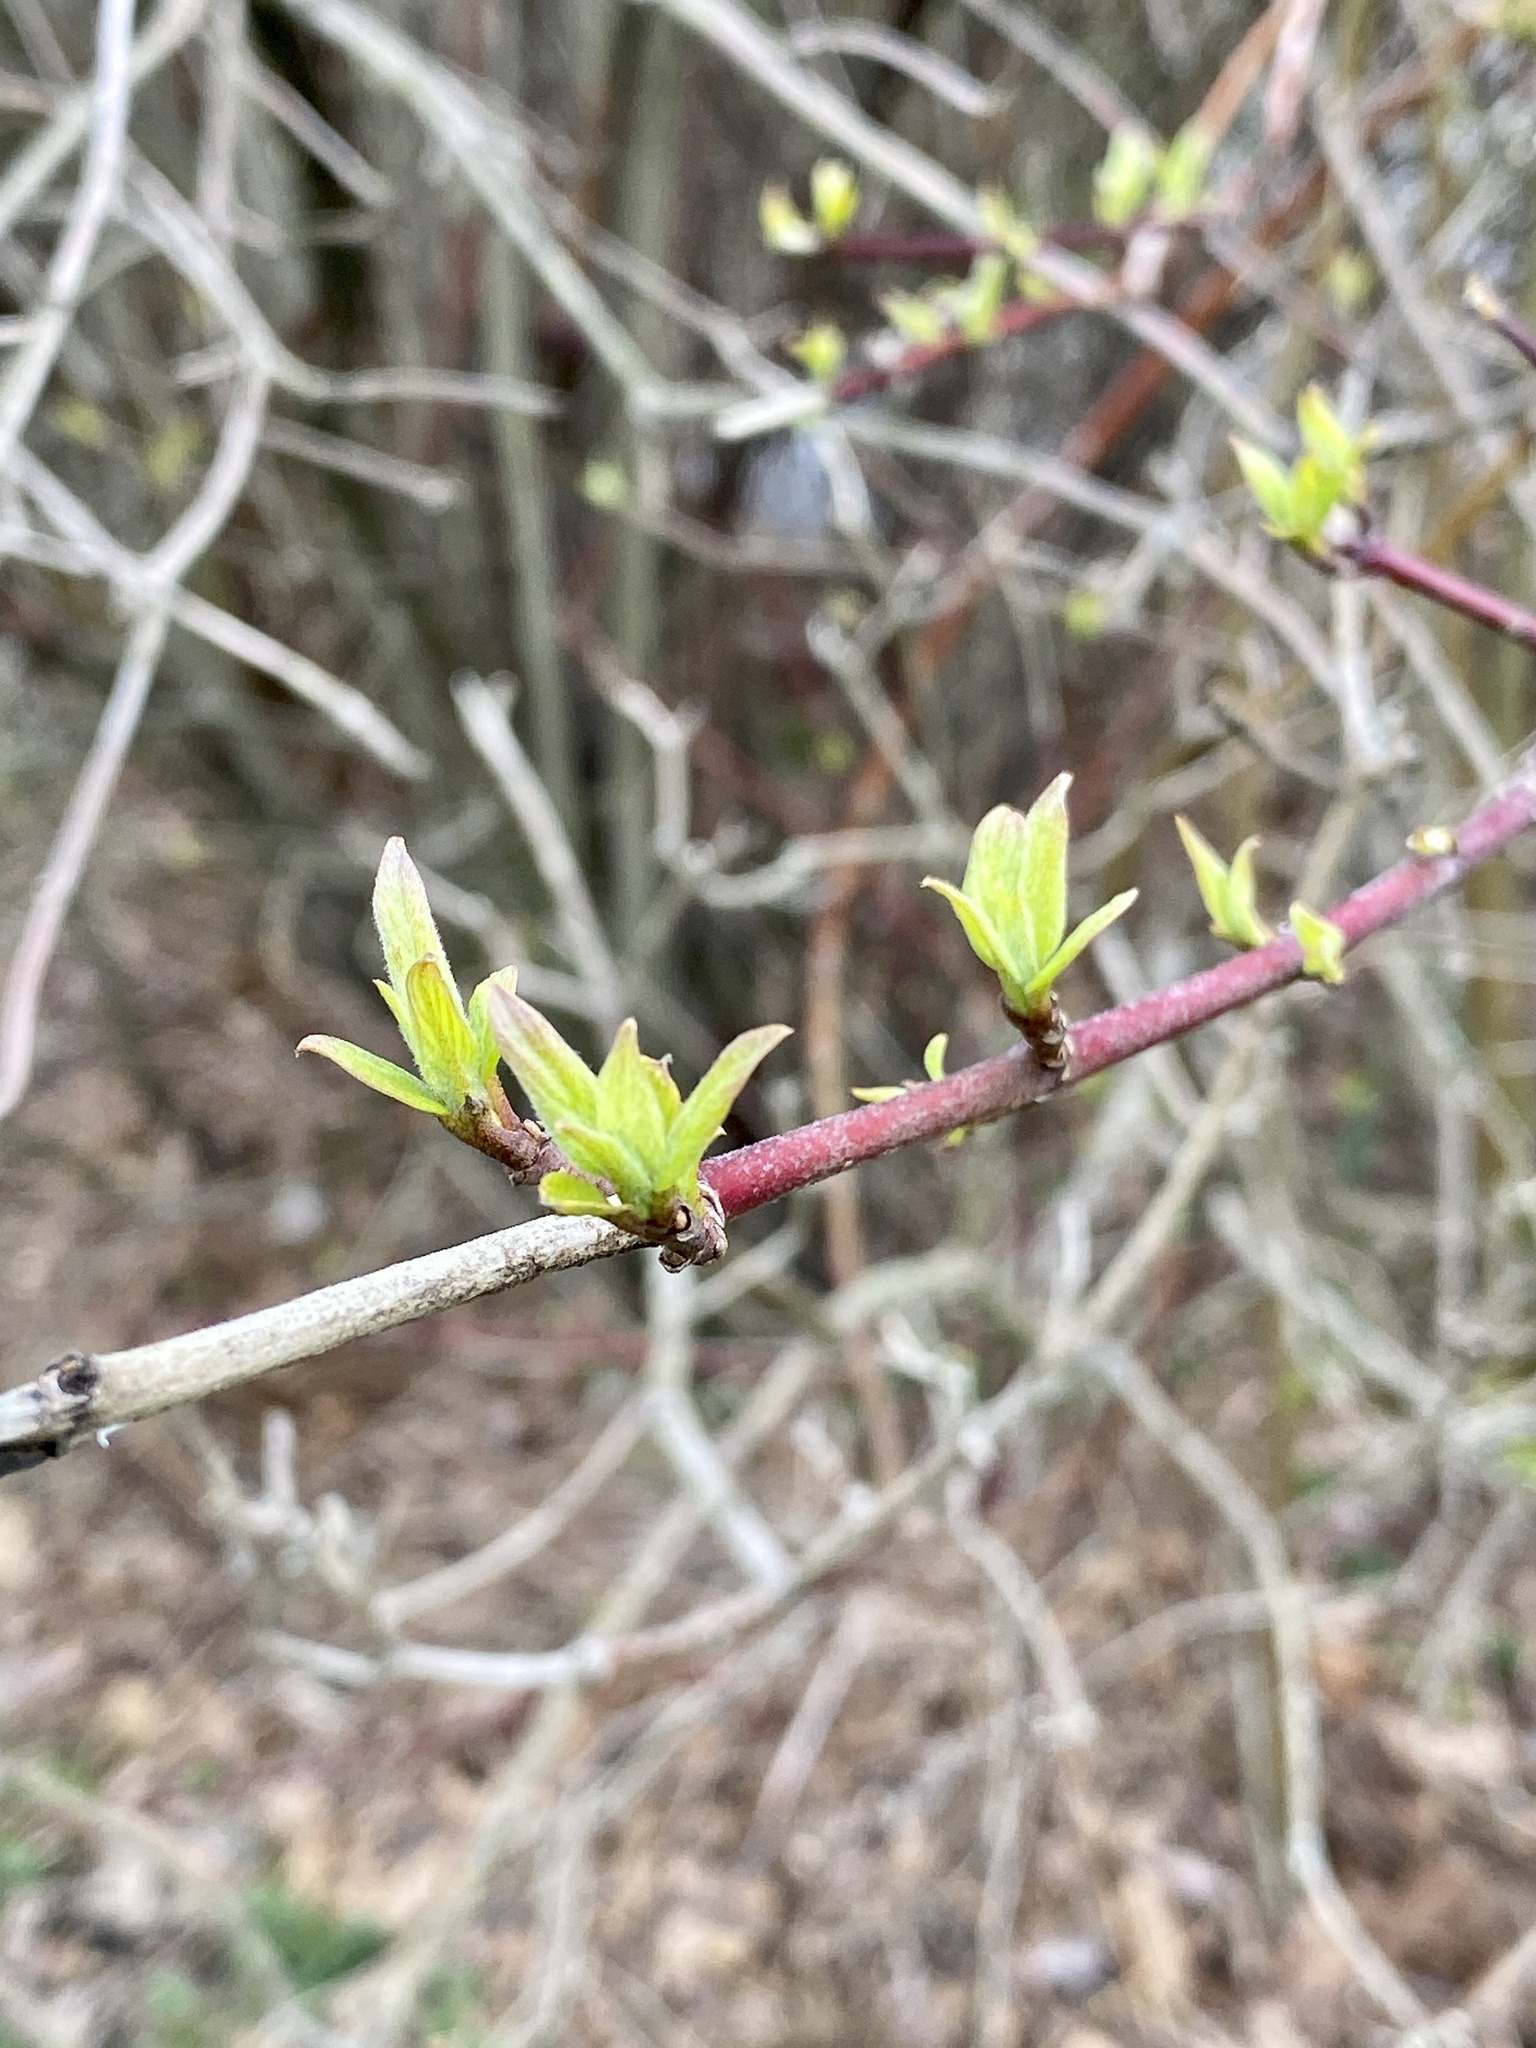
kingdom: Plantae
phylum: Tracheophyta
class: Magnoliopsida
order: Cornales
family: Cornaceae
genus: Cornus
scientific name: Cornus amomum
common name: Silky dogwood
